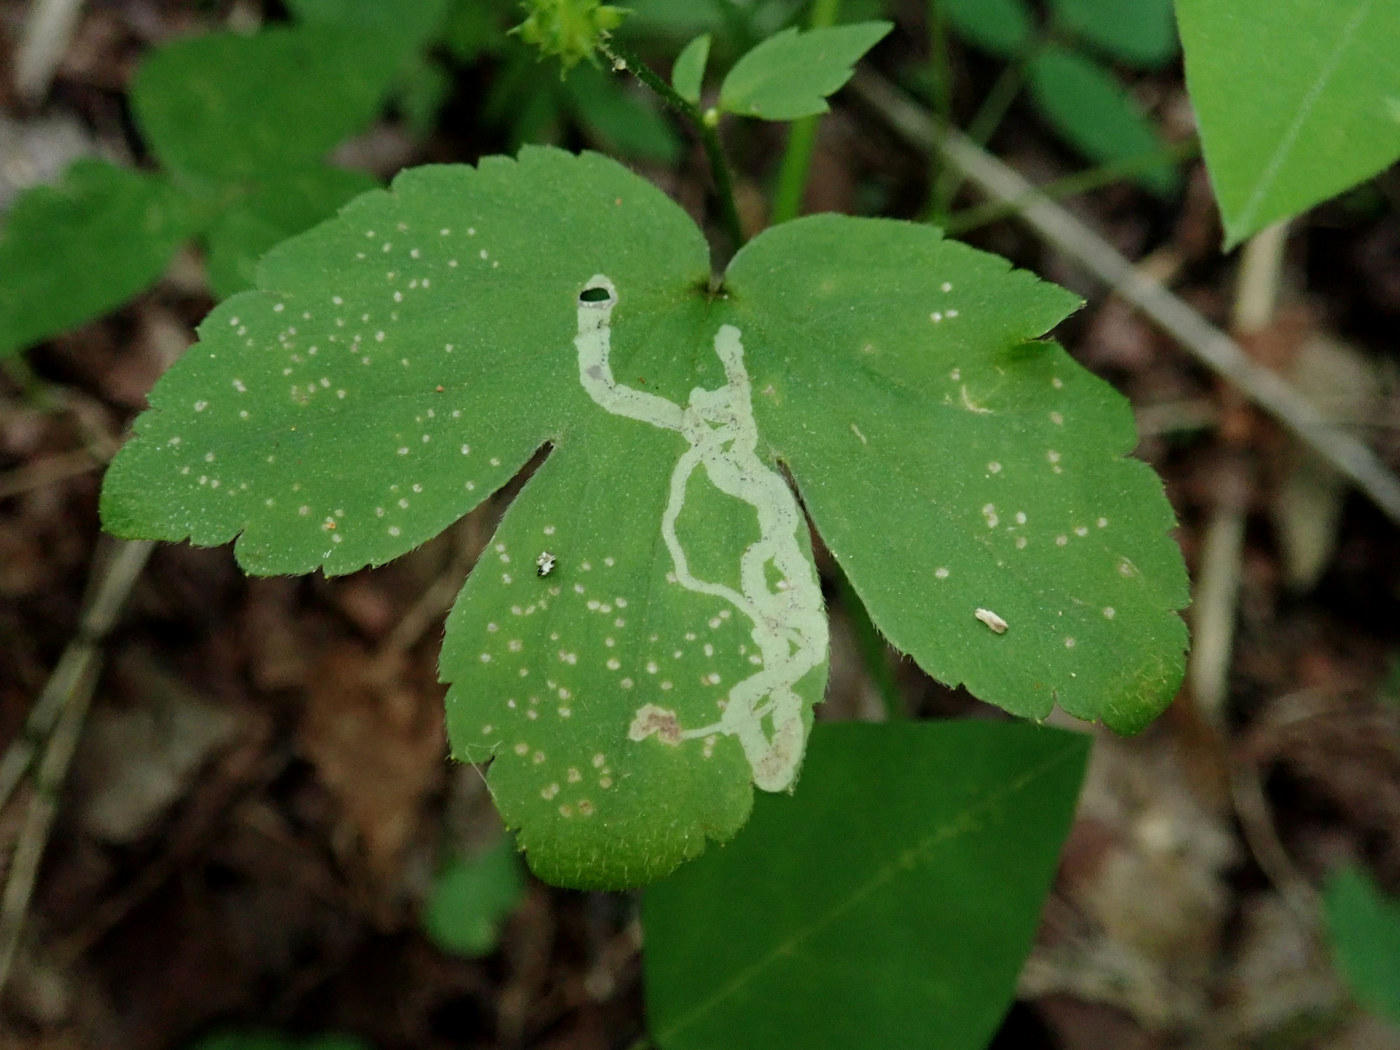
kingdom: Animalia
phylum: Arthropoda
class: Insecta
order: Diptera
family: Agromyzidae
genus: Phytomyza
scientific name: Phytomyza loewii
